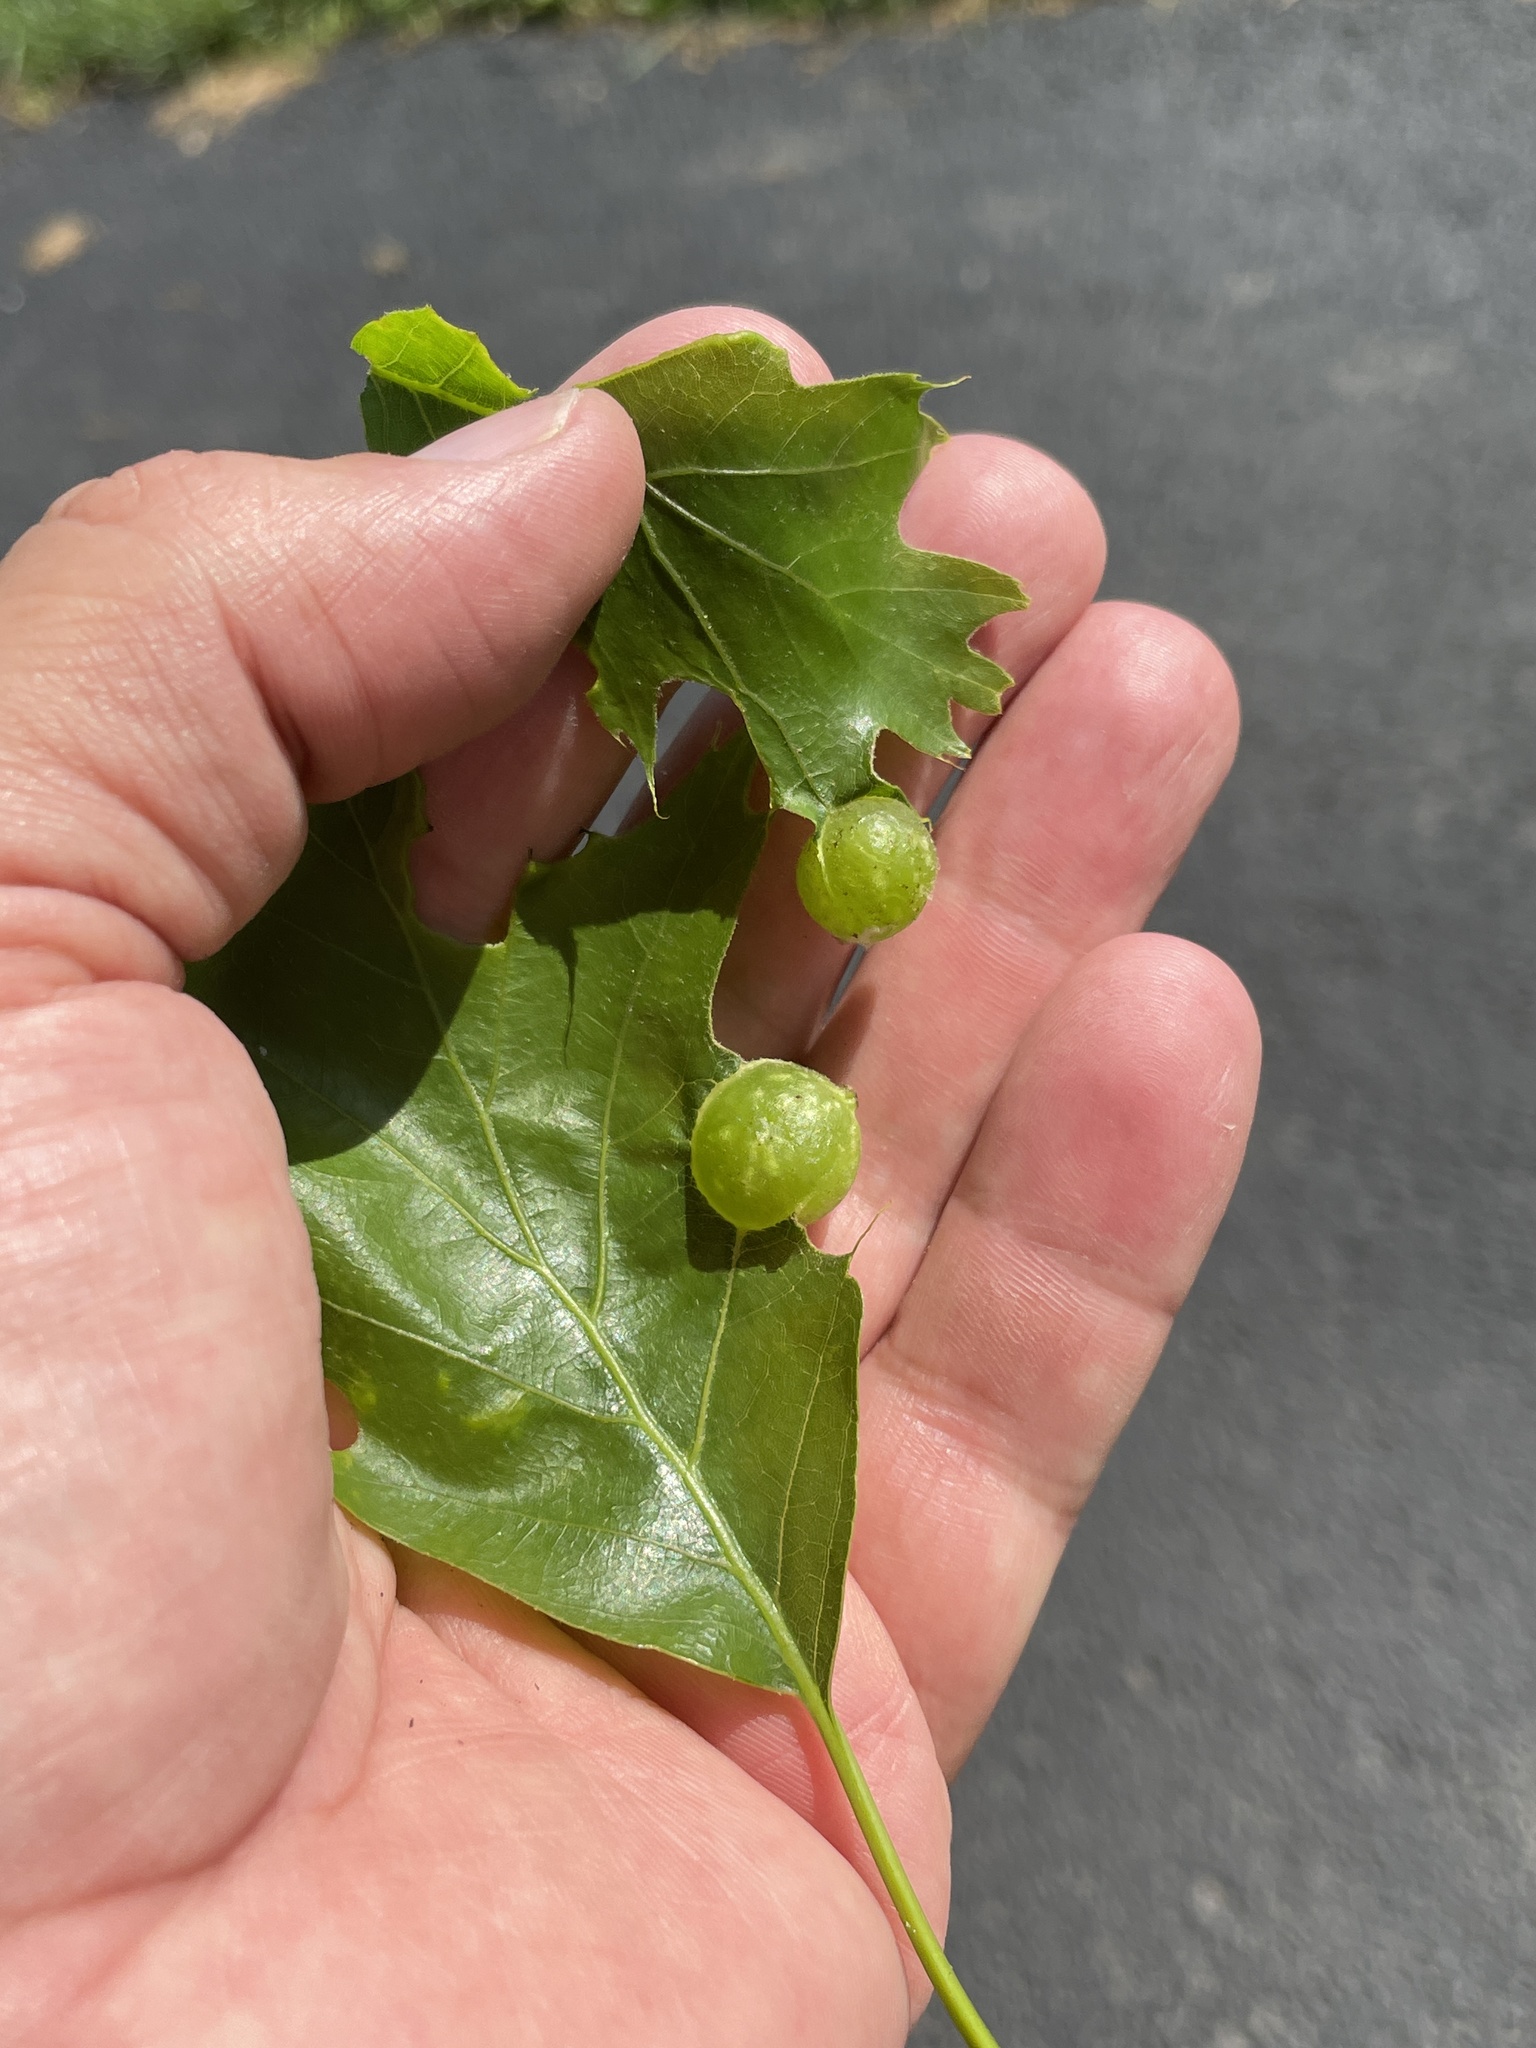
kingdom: Animalia
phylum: Arthropoda
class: Insecta
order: Hymenoptera
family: Cynipidae
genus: Dryocosmus
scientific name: Dryocosmus quercuspalustris
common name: Succulent oak gall wasp
